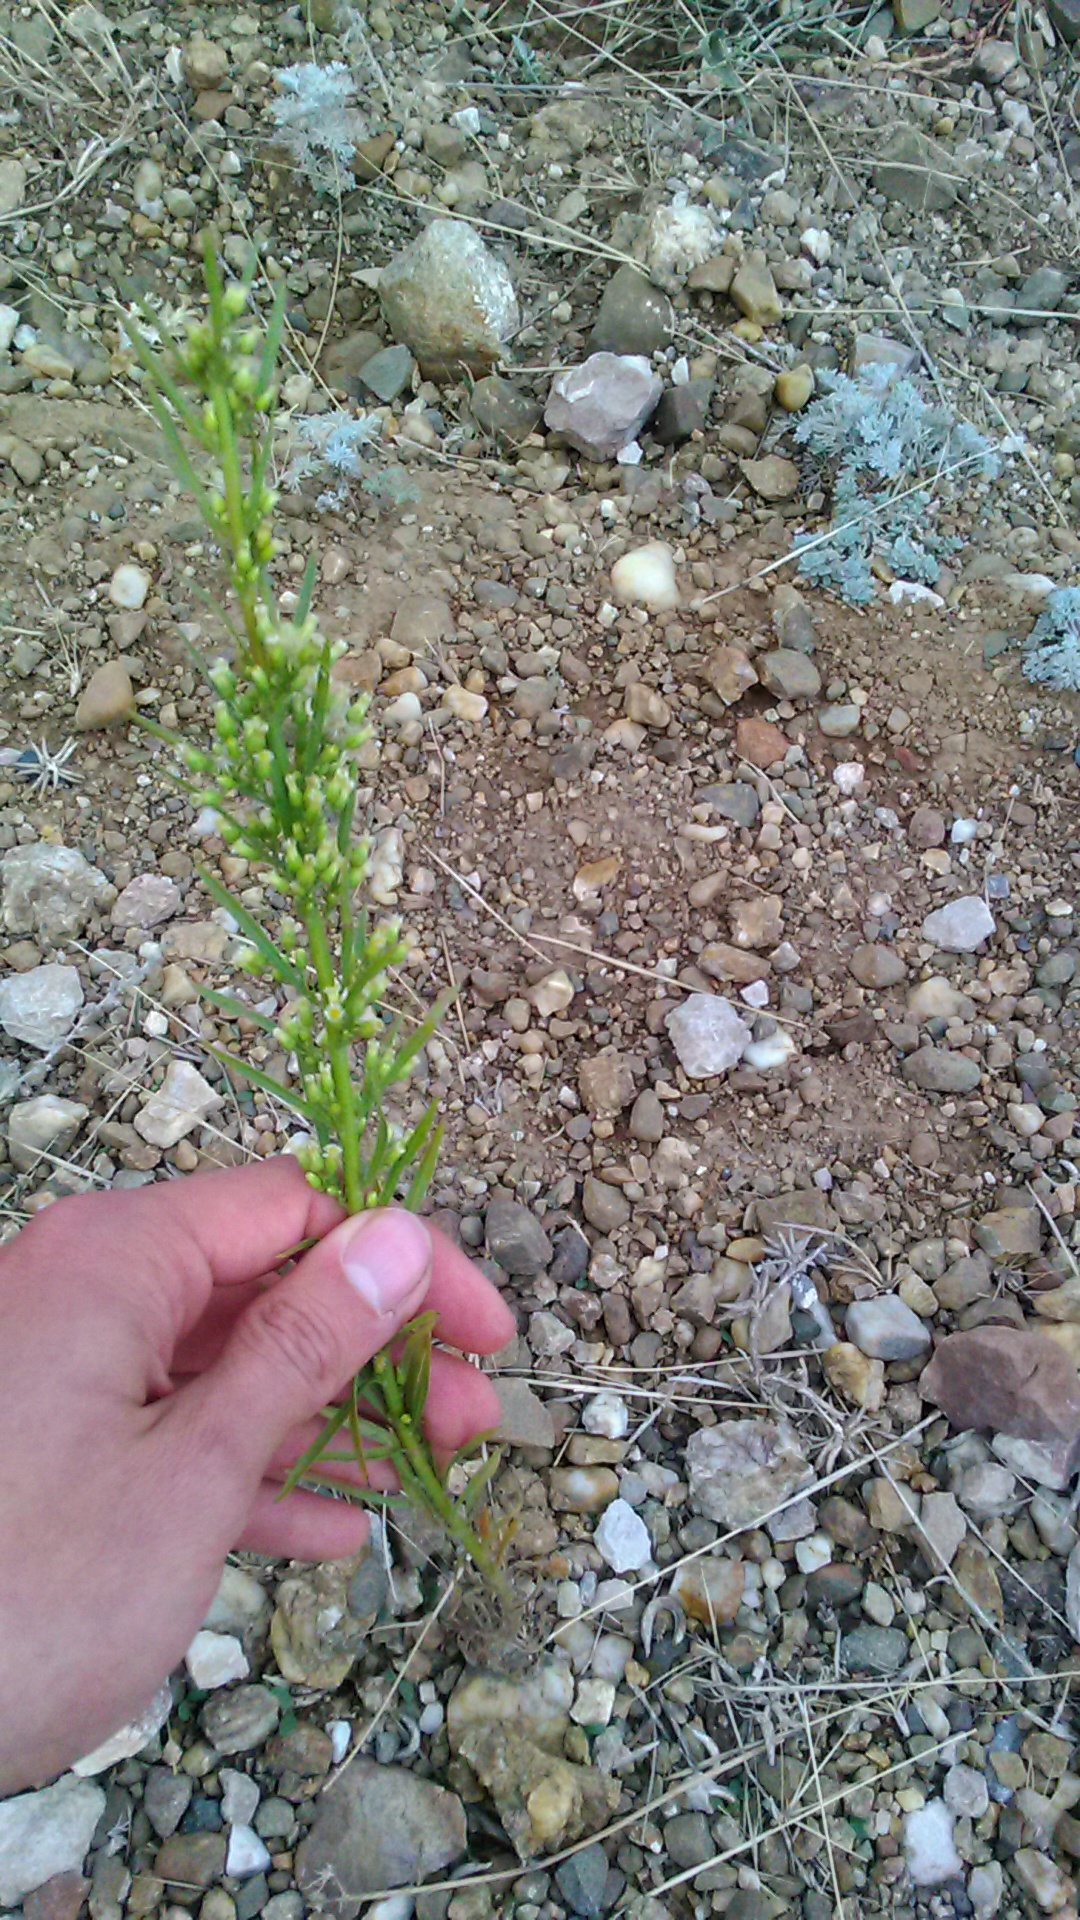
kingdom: Plantae
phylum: Tracheophyta
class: Magnoliopsida
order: Asterales
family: Asteraceae
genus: Erigeron
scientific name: Erigeron canadensis
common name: Canadian fleabane
